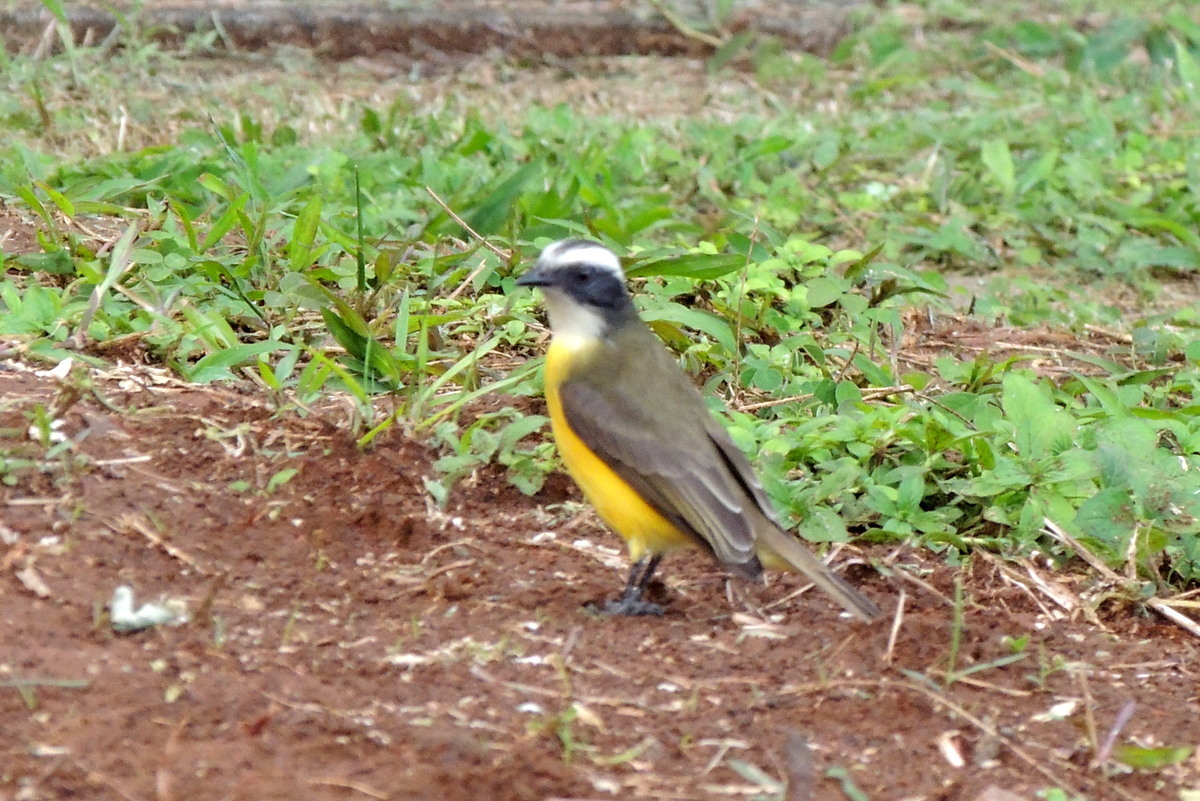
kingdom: Animalia
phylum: Chordata
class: Aves
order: Passeriformes
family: Tyrannidae
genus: Myiozetetes
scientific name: Myiozetetes similis
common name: Social flycatcher
